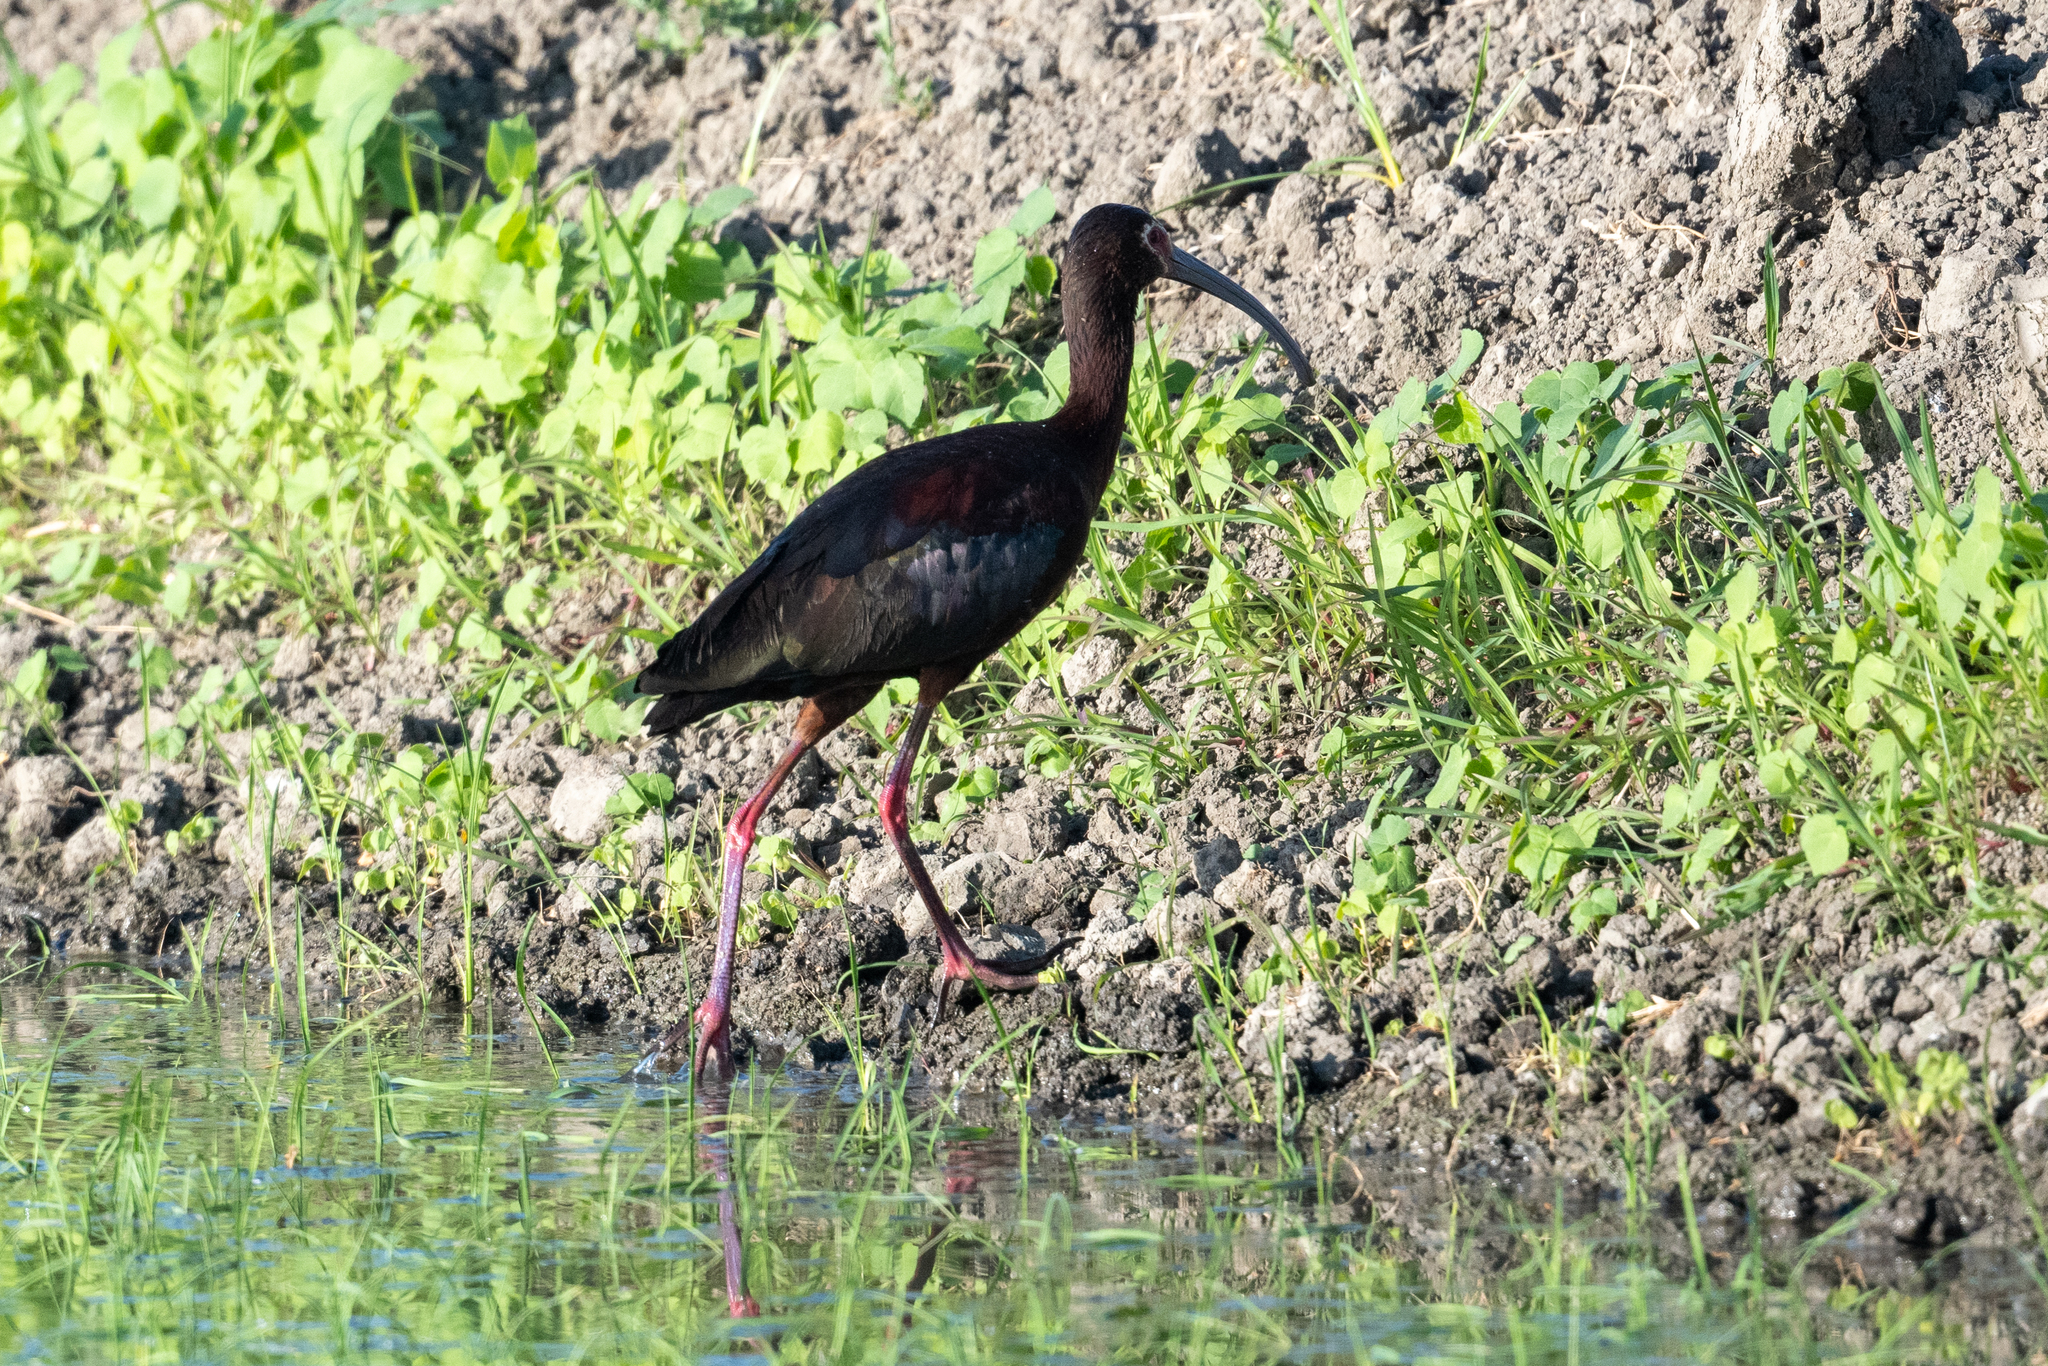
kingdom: Animalia
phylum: Chordata
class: Aves
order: Pelecaniformes
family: Threskiornithidae
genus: Plegadis
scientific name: Plegadis chihi
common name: White-faced ibis
